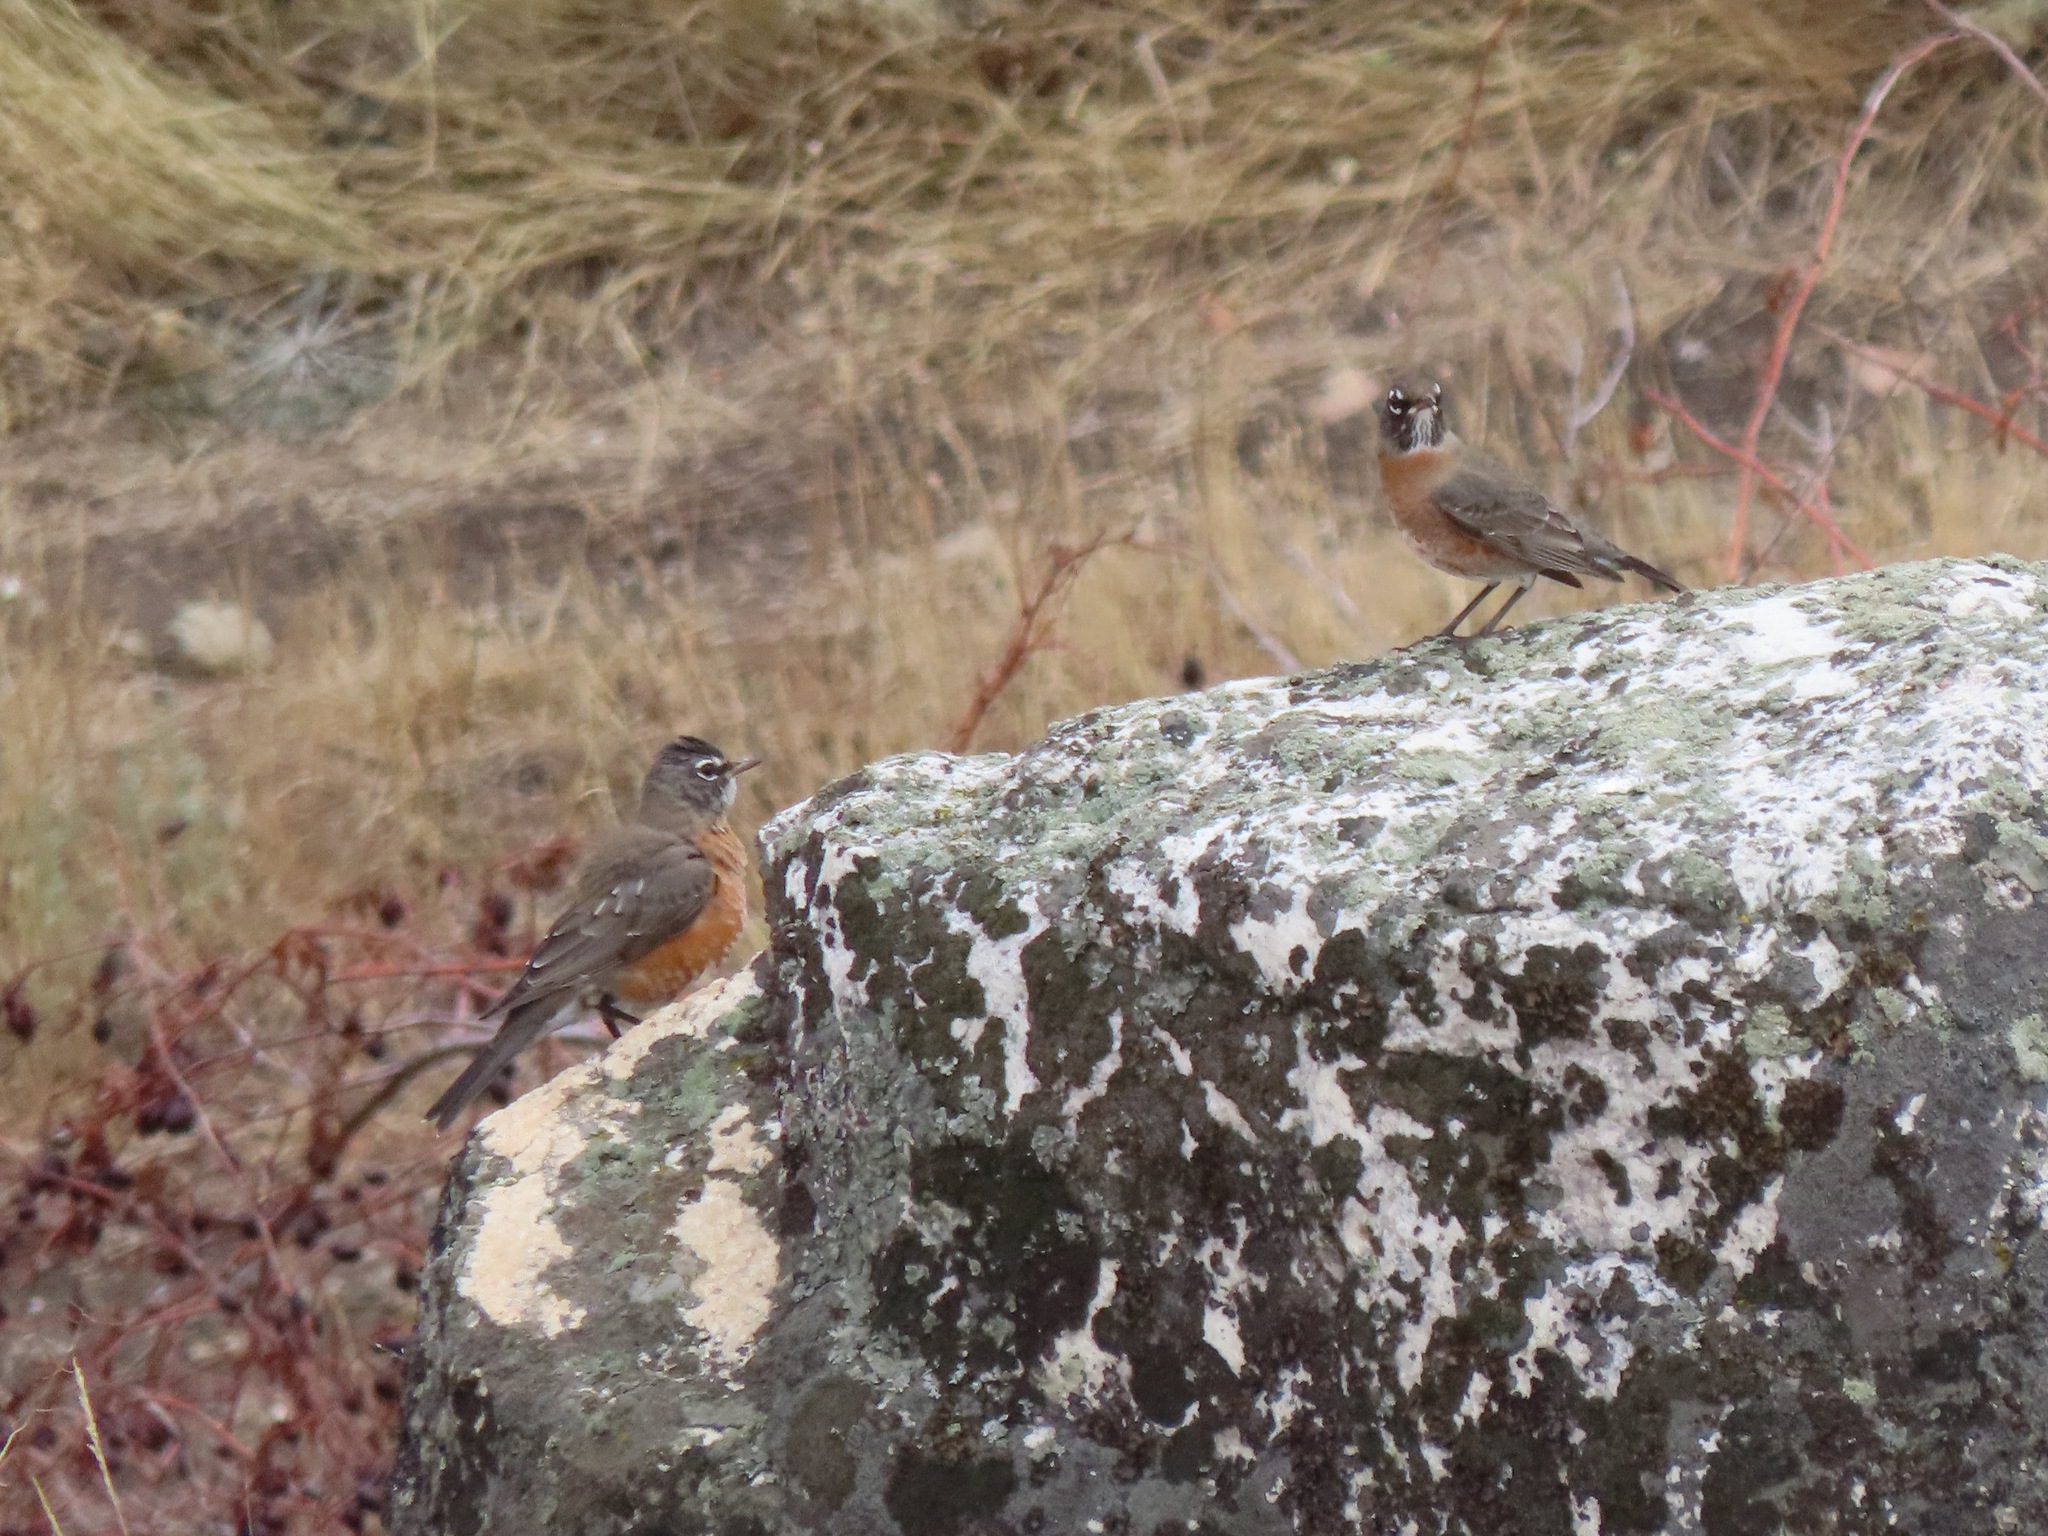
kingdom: Animalia
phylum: Chordata
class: Aves
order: Passeriformes
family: Turdidae
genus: Turdus
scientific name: Turdus migratorius
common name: American robin
